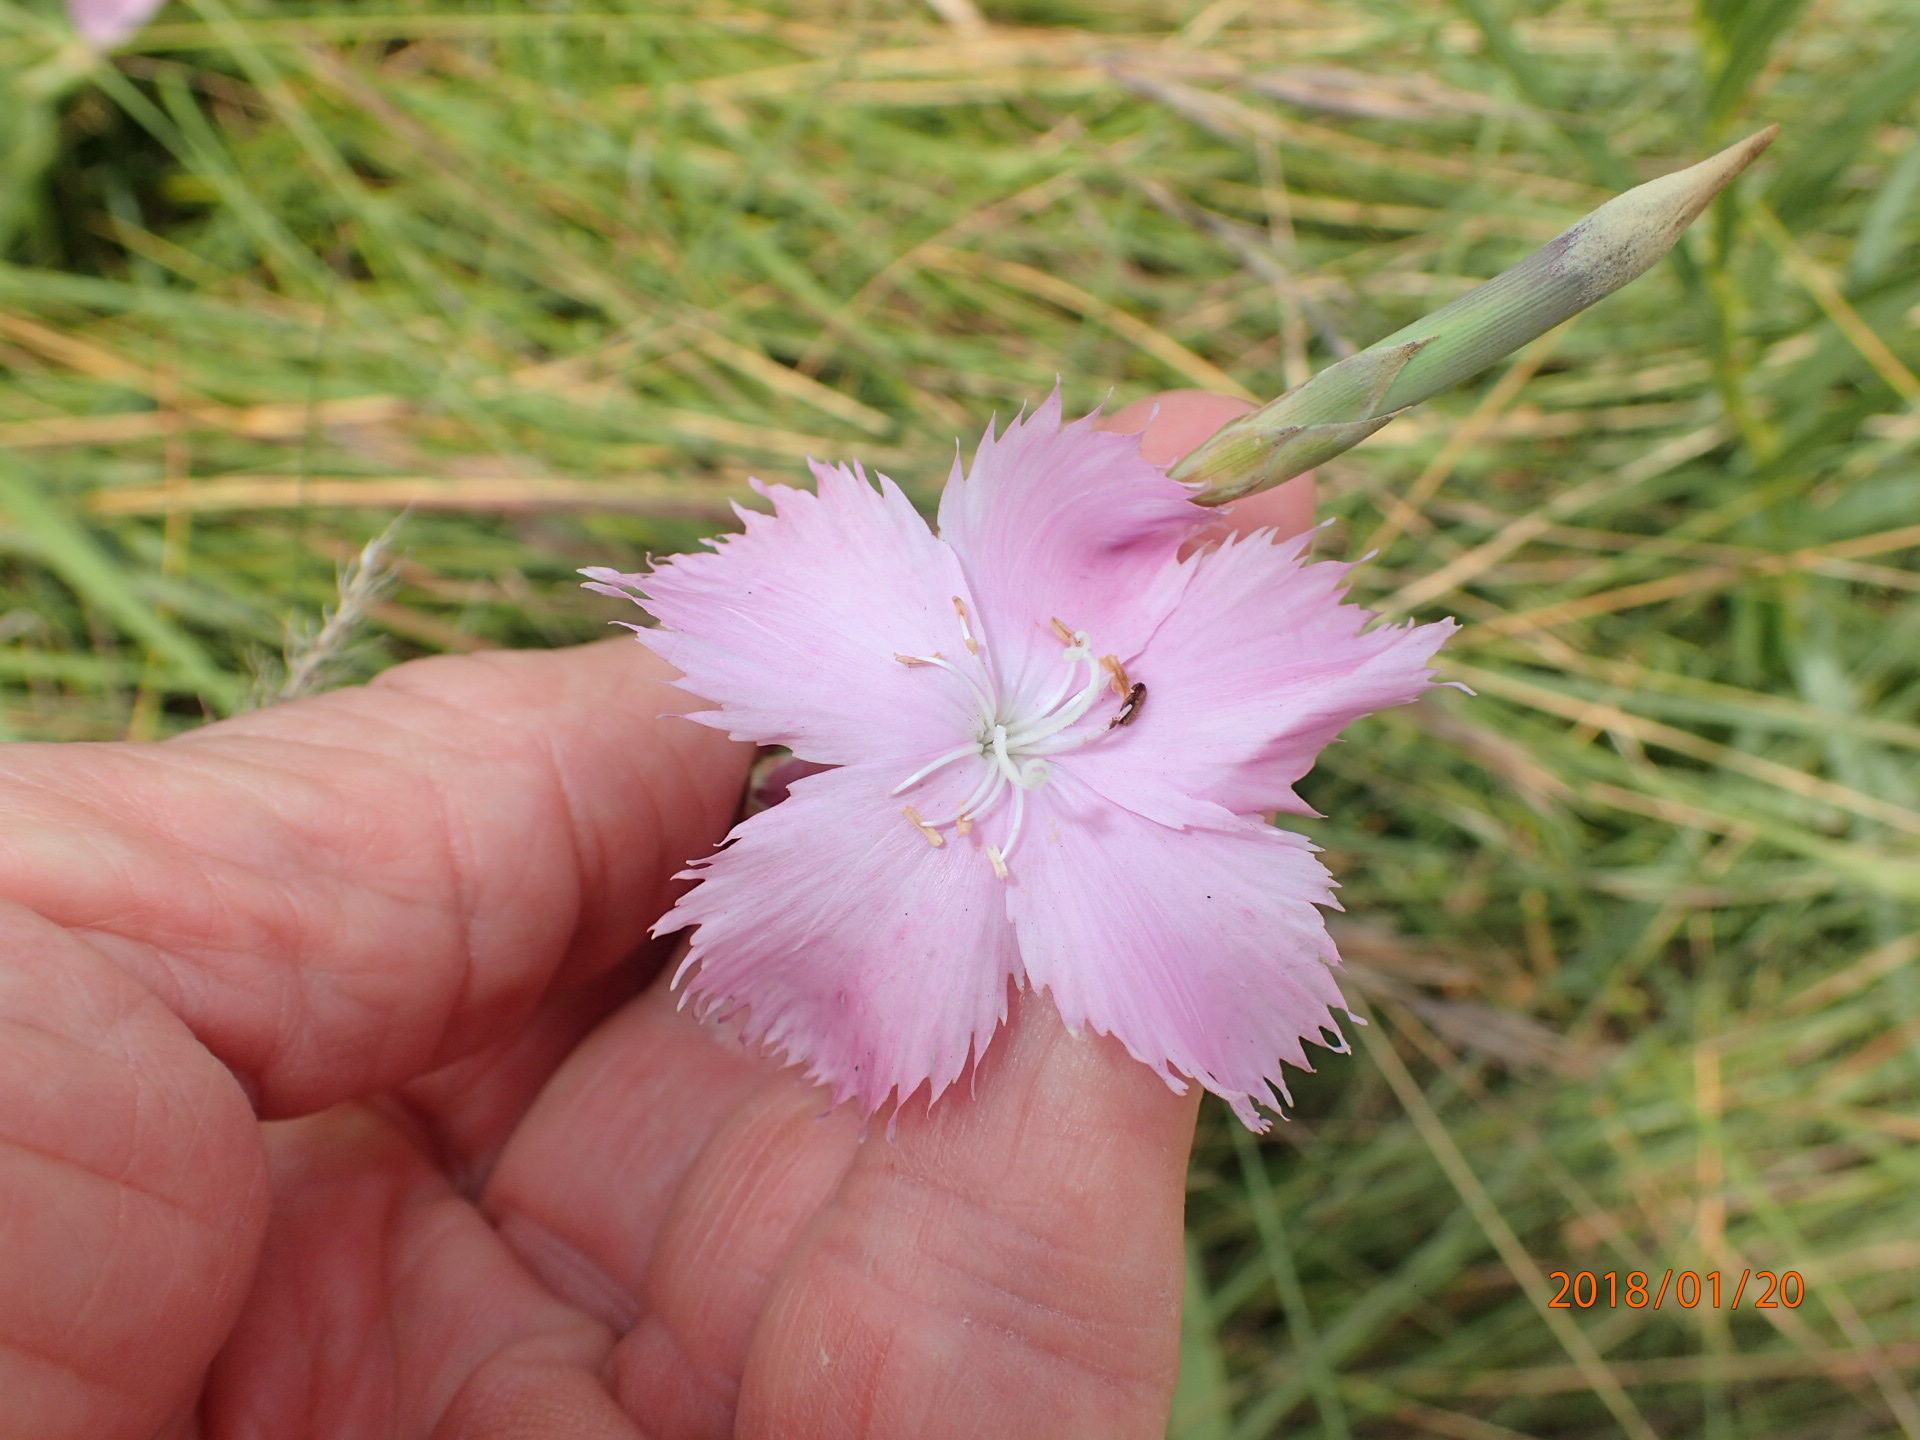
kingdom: Plantae
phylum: Tracheophyta
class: Magnoliopsida
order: Caryophyllales
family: Caryophyllaceae
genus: Dianthus
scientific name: Dianthus zeyheri
